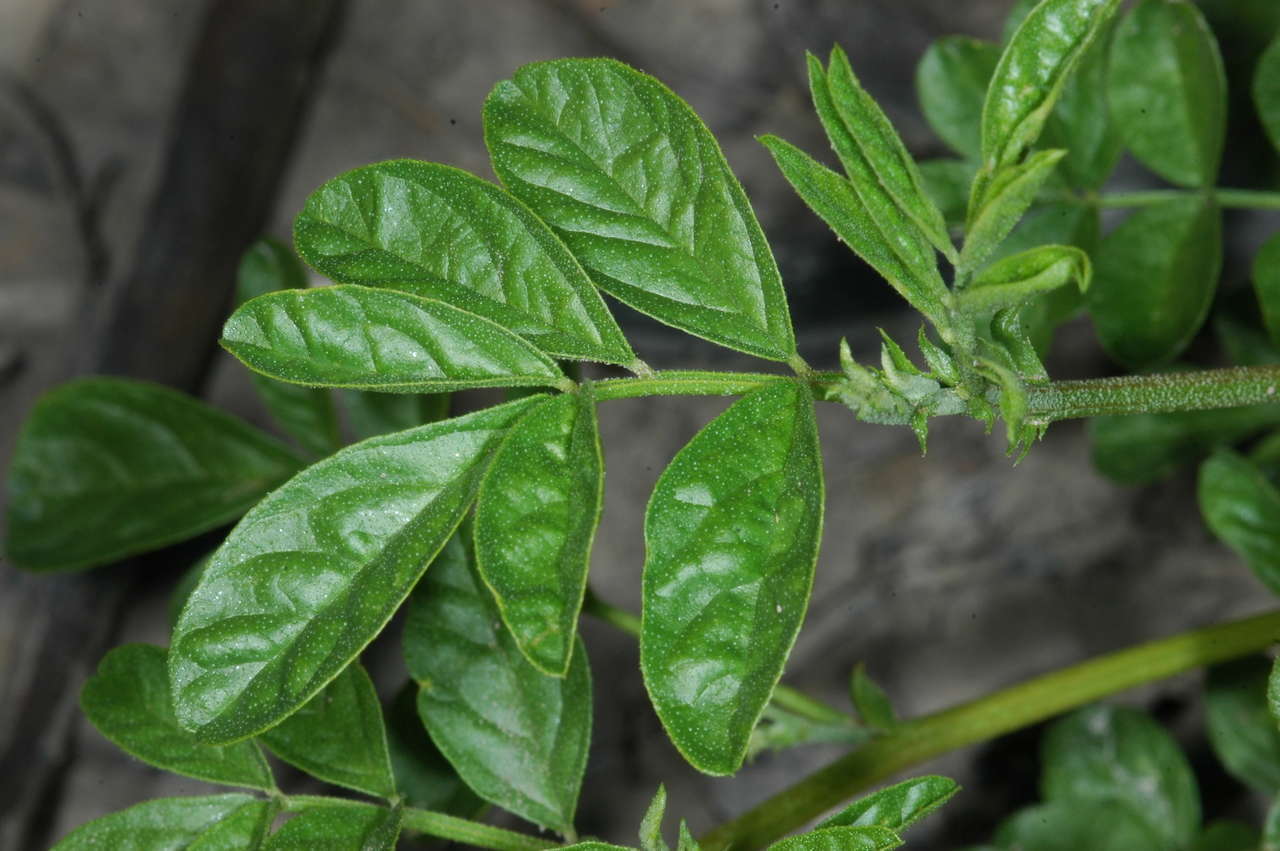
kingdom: Plantae
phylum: Tracheophyta
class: Magnoliopsida
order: Fabales
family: Fabaceae
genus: Glycyrrhiza
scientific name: Glycyrrhiza acanthocarpa
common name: Southern liquorice
